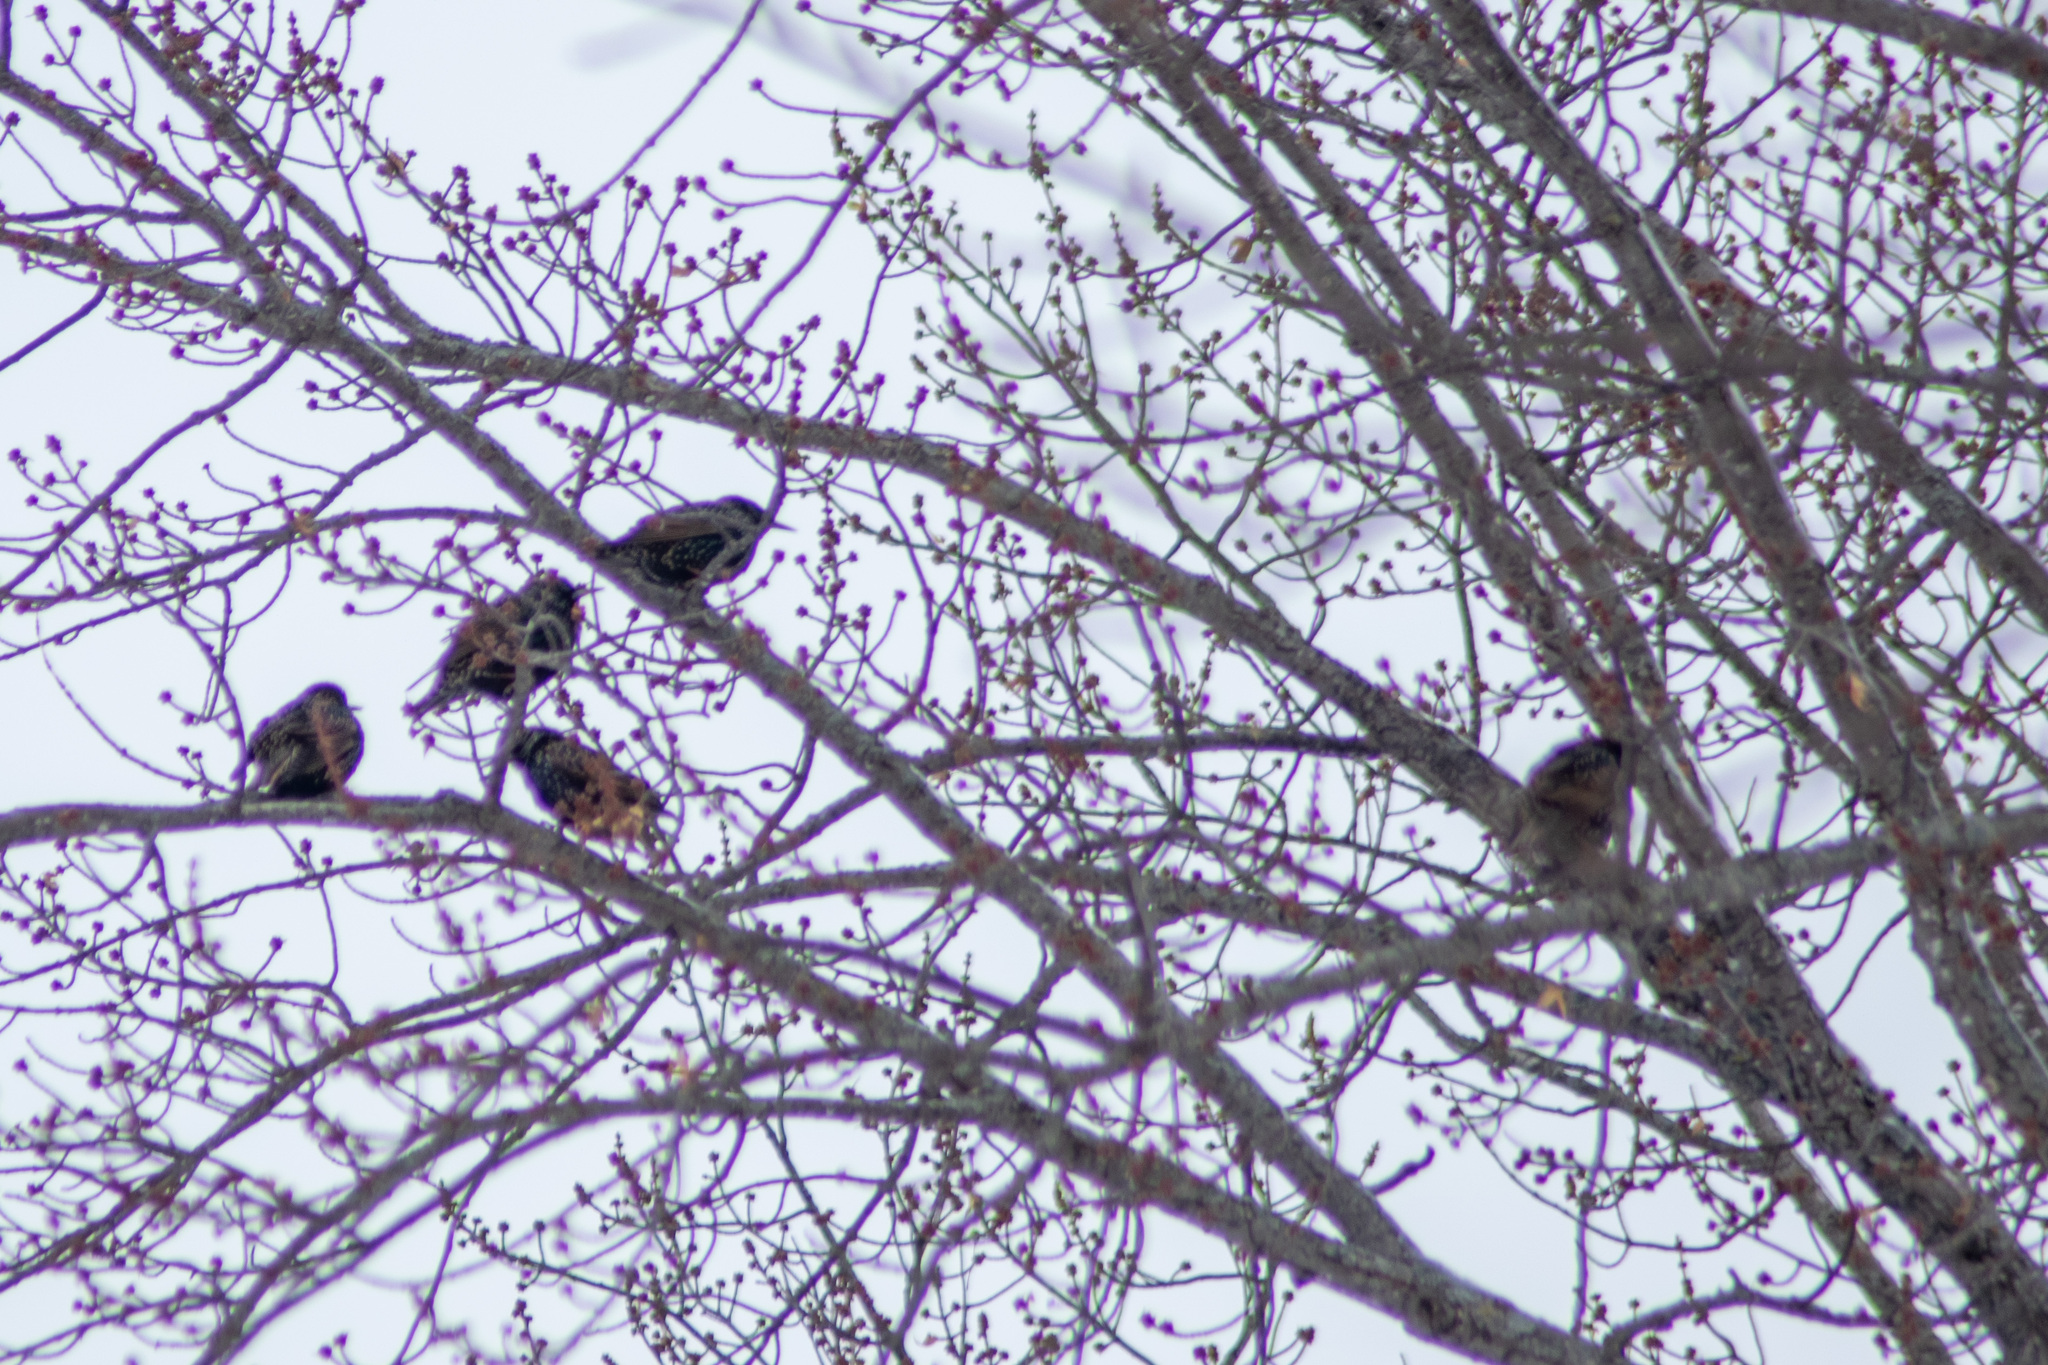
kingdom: Animalia
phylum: Chordata
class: Aves
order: Passeriformes
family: Sturnidae
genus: Sturnus
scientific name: Sturnus vulgaris
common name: Common starling
